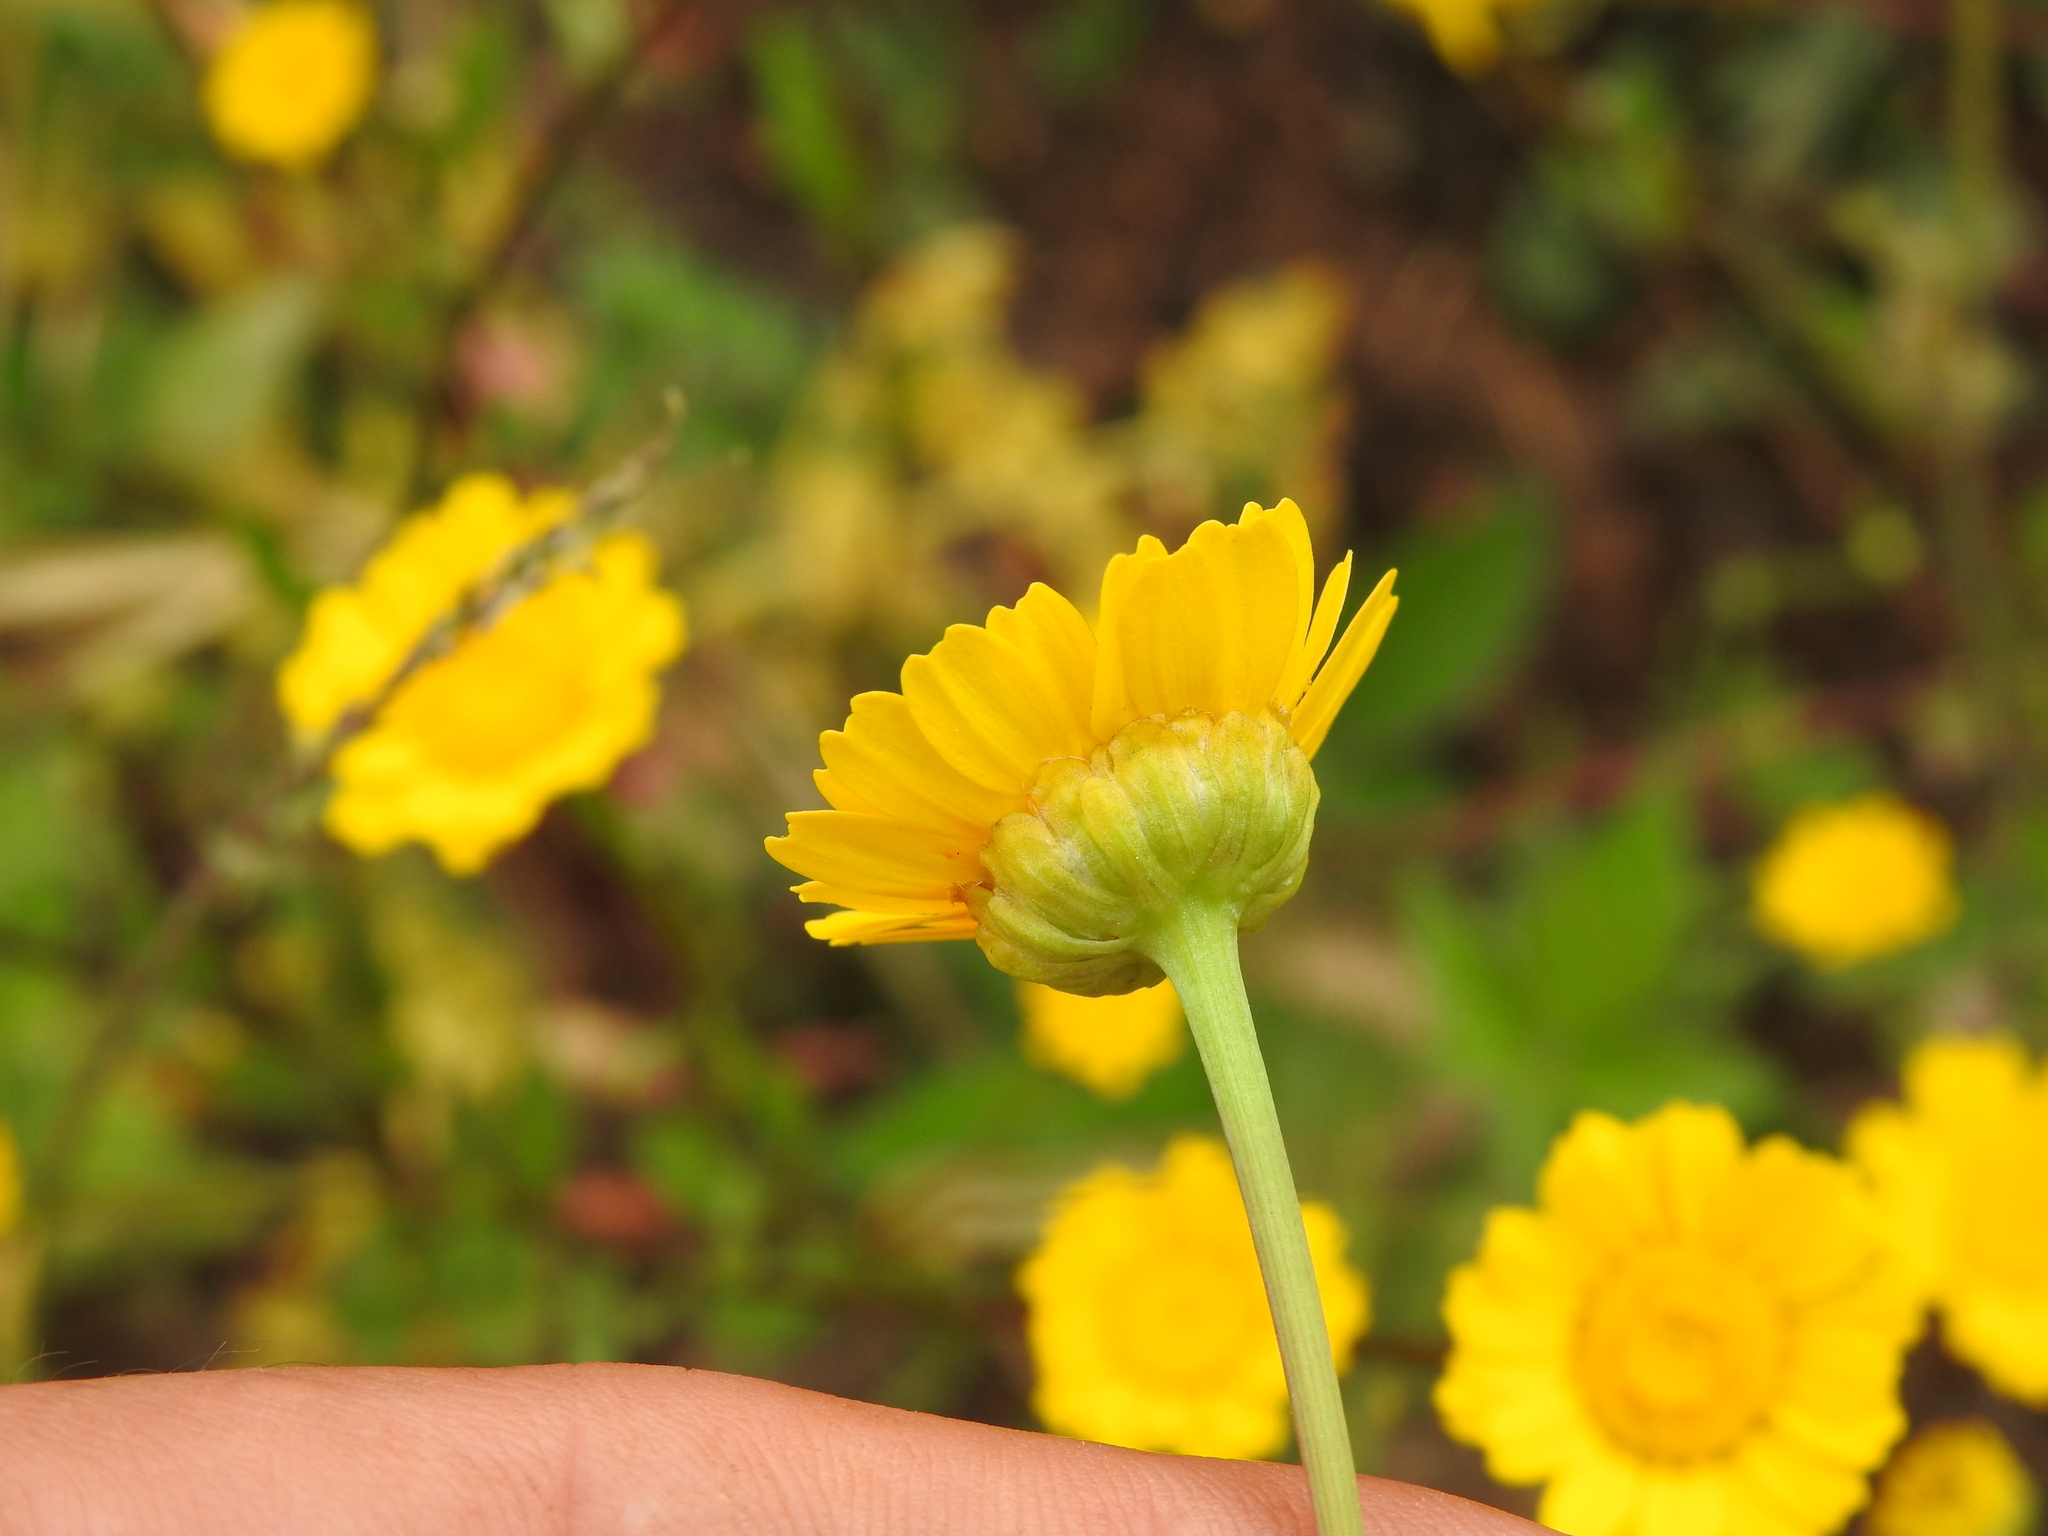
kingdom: Plantae
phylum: Tracheophyta
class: Magnoliopsida
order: Asterales
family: Asteraceae
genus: Coleostephus
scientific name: Coleostephus myconis
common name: Mediterranean marigold
